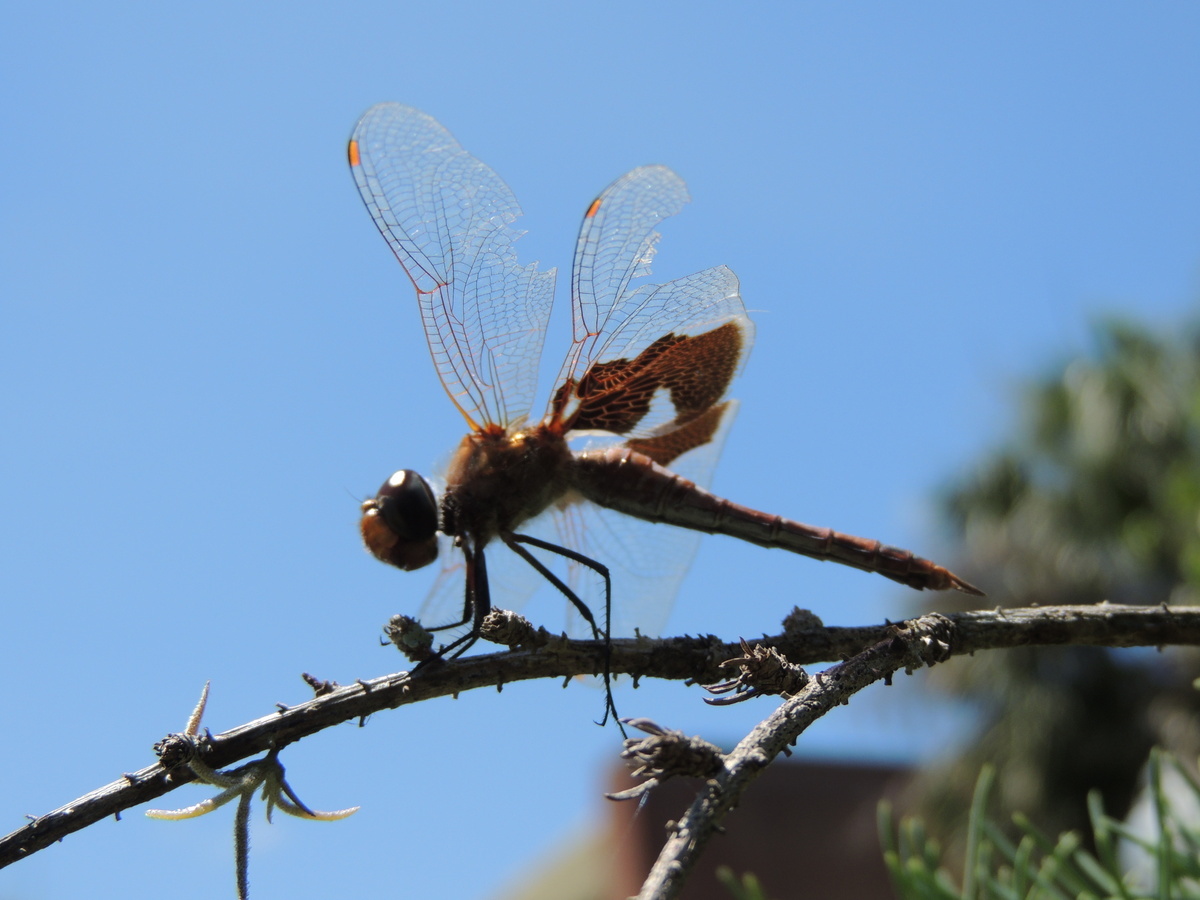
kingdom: Animalia
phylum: Arthropoda
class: Insecta
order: Odonata
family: Libellulidae
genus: Tramea
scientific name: Tramea onusta
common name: Red saddlebags
